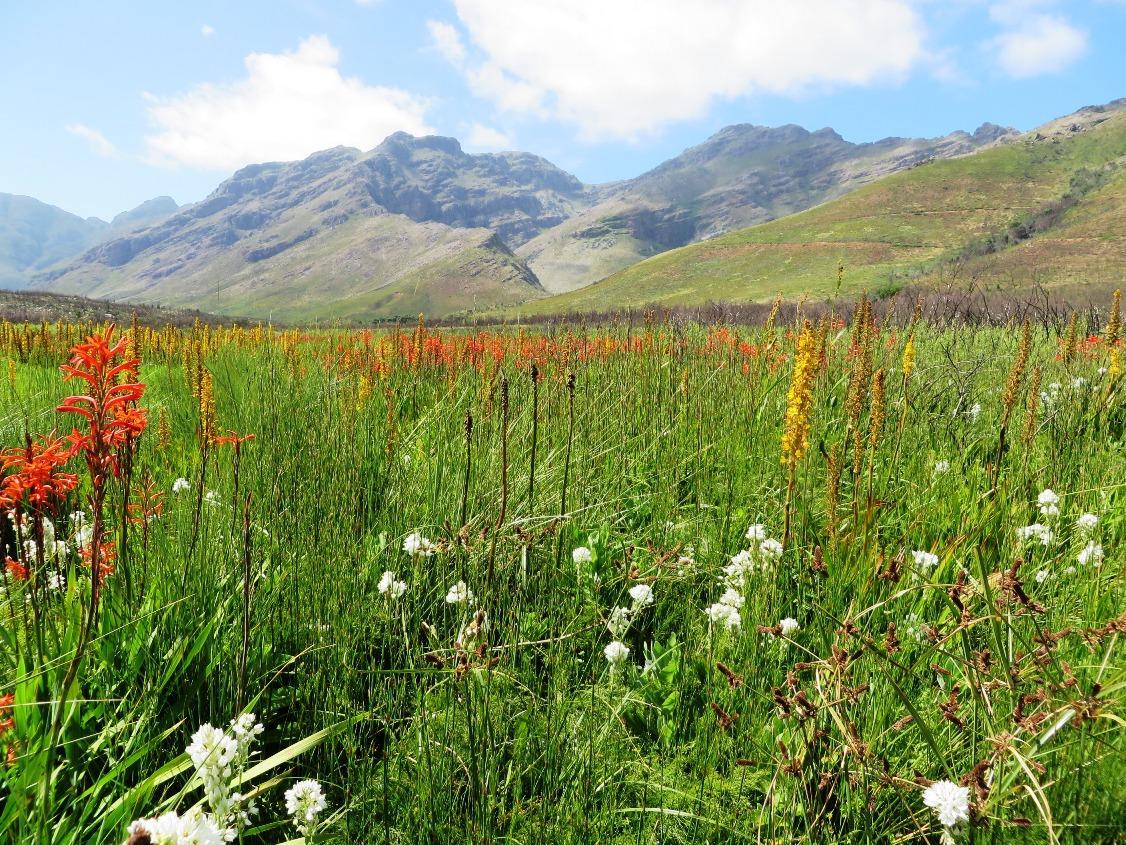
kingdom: Plantae
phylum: Tracheophyta
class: Liliopsida
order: Commelinales
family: Haemodoraceae
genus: Wachendorfia
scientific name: Wachendorfia thyrsiflora
